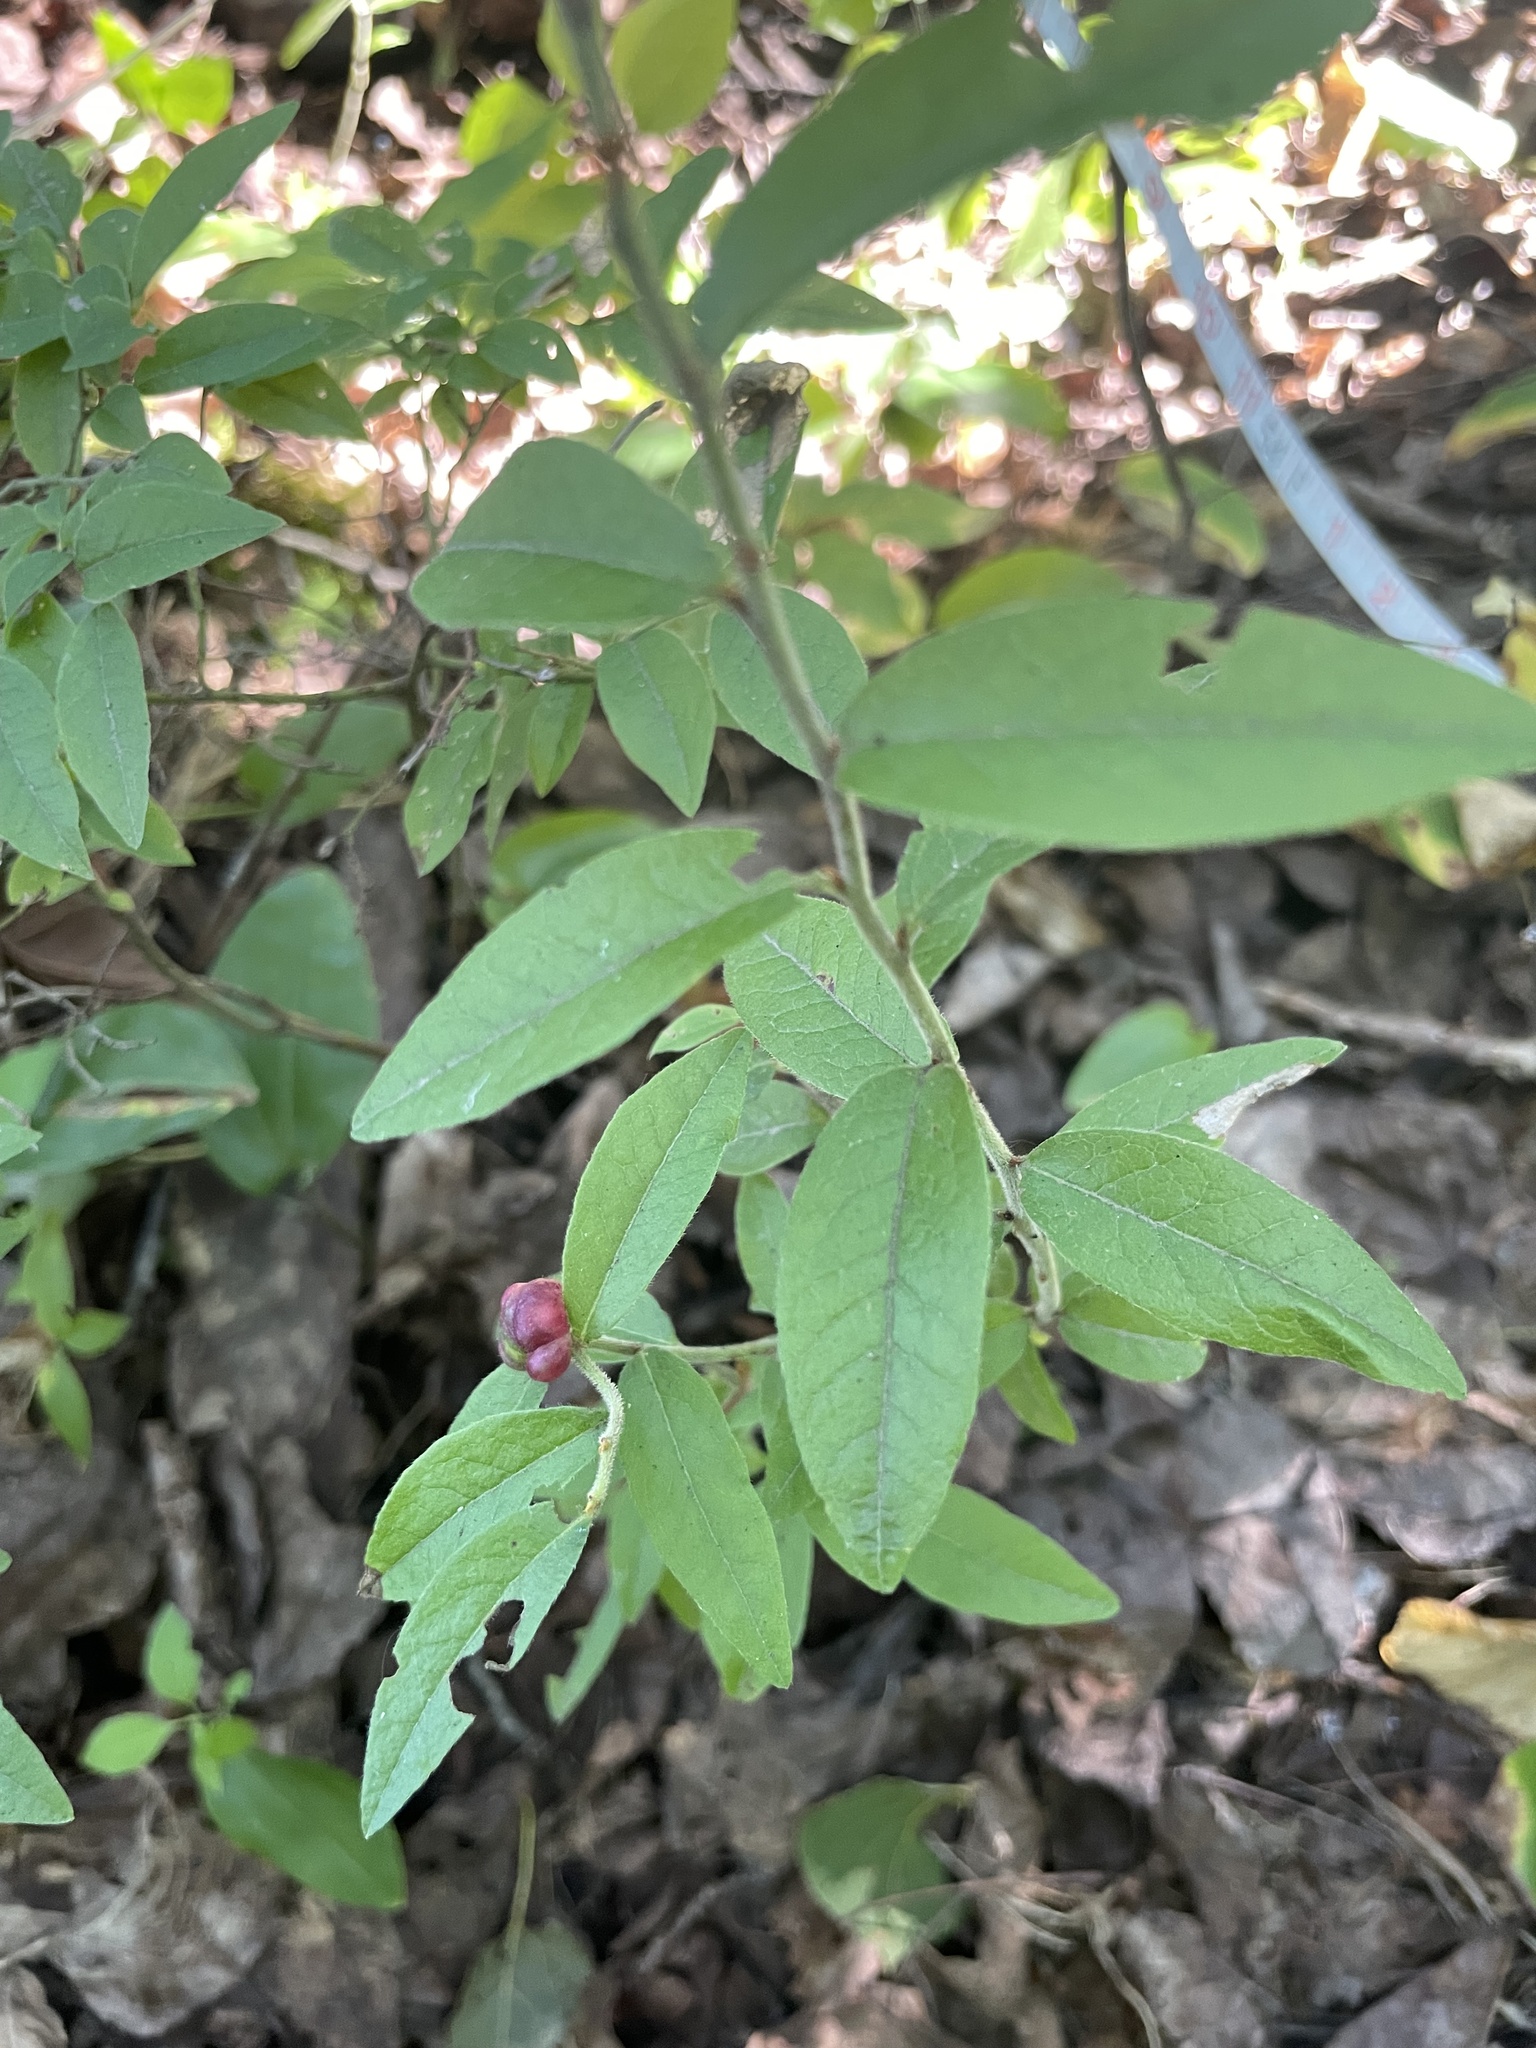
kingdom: Plantae
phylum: Tracheophyta
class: Magnoliopsida
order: Ericales
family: Ericaceae
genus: Vaccinium
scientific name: Vaccinium myrtilloides
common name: Canada blueberry
